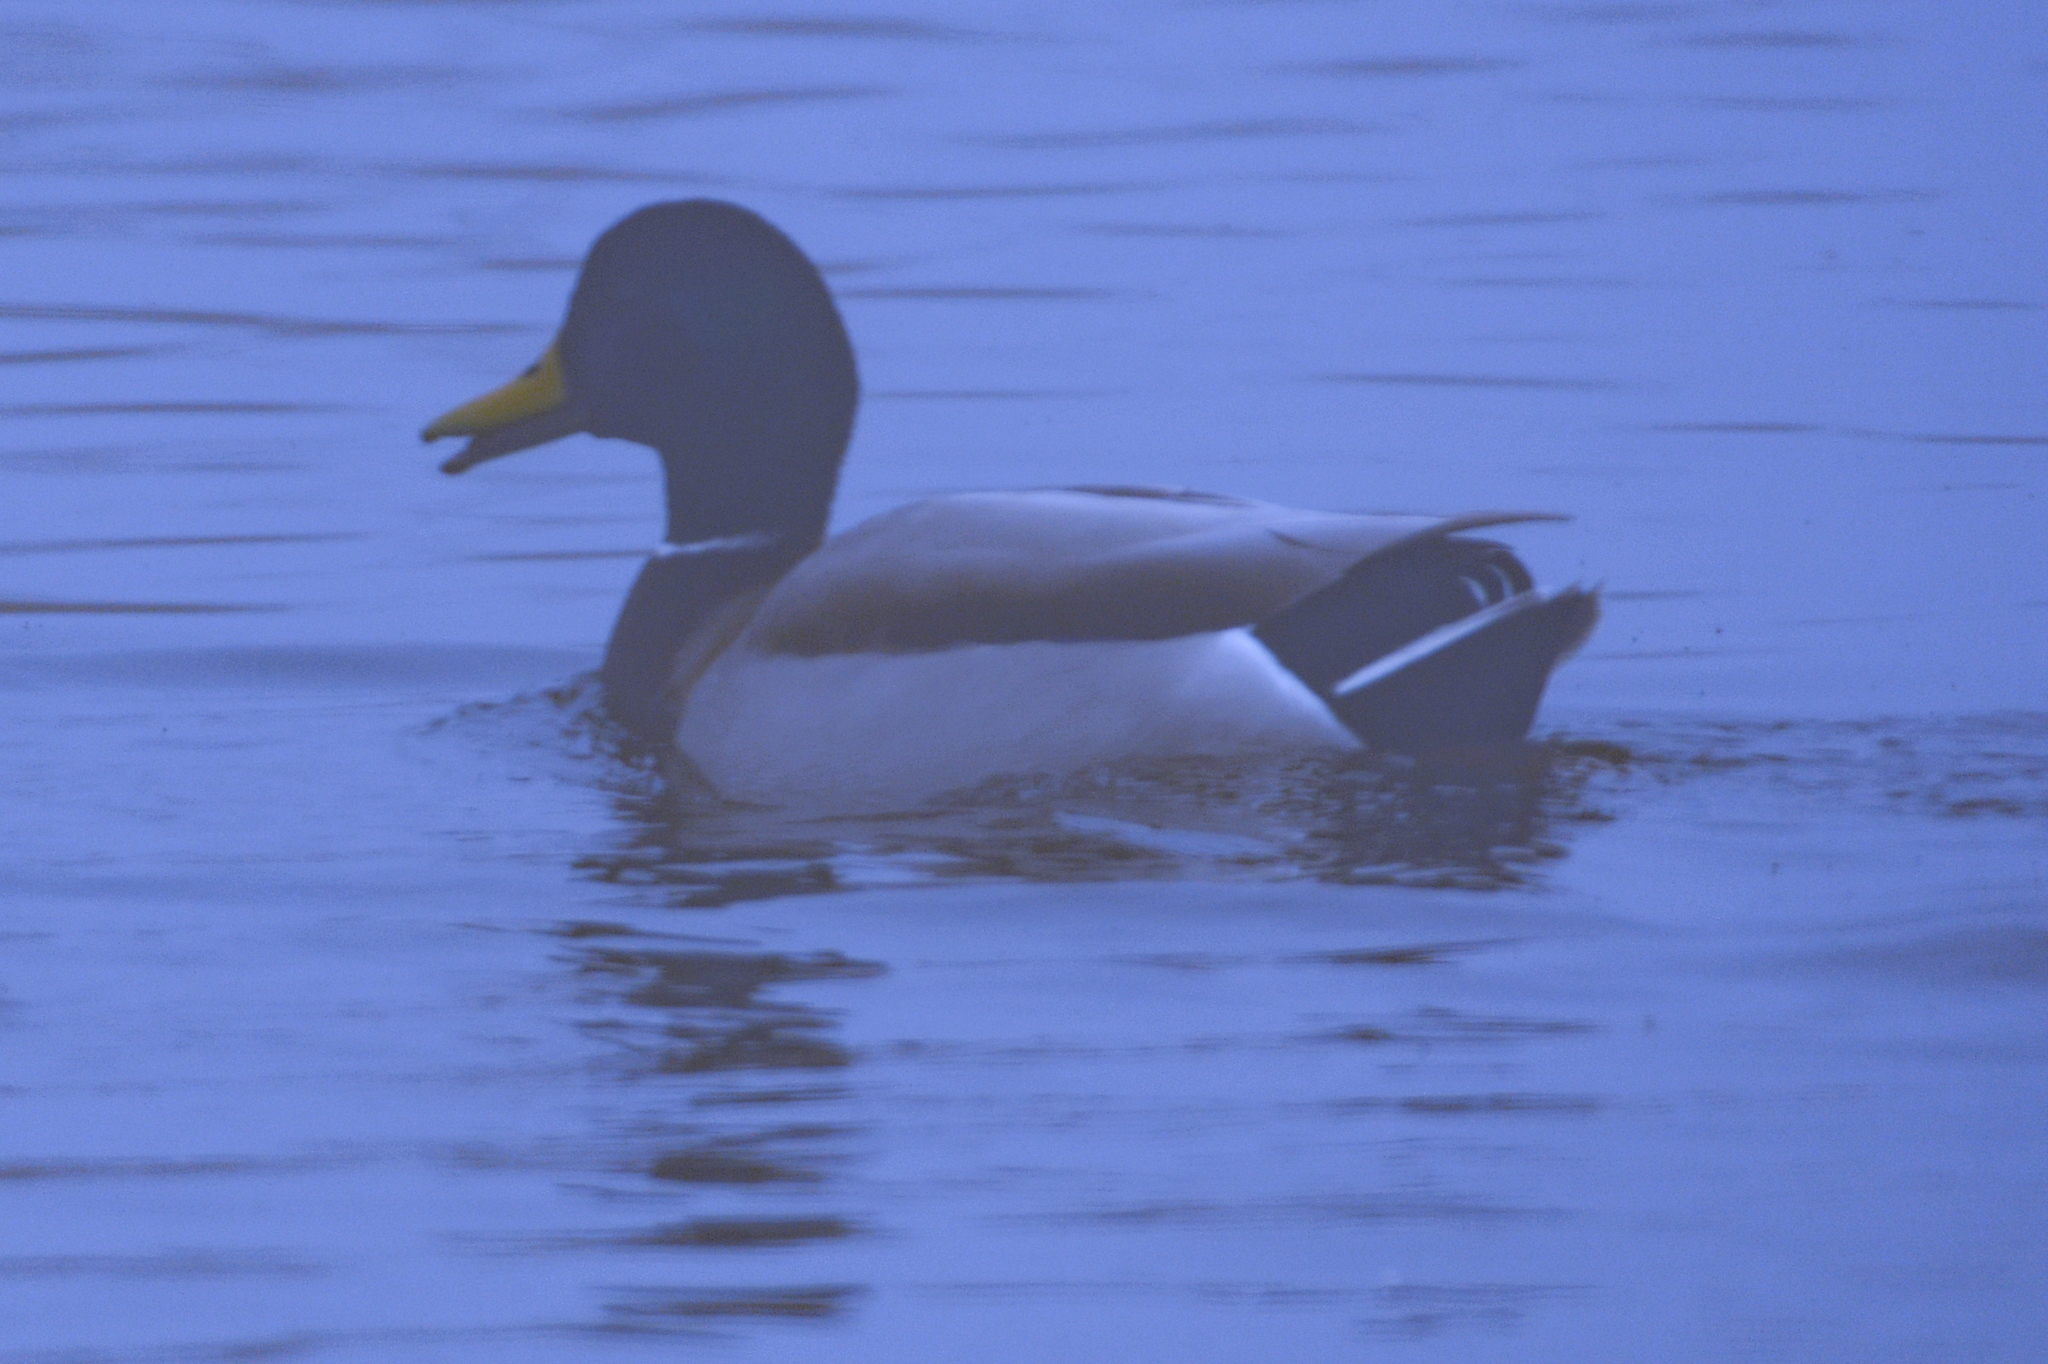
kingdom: Animalia
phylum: Chordata
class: Aves
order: Anseriformes
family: Anatidae
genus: Anas
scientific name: Anas platyrhynchos
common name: Mallard
